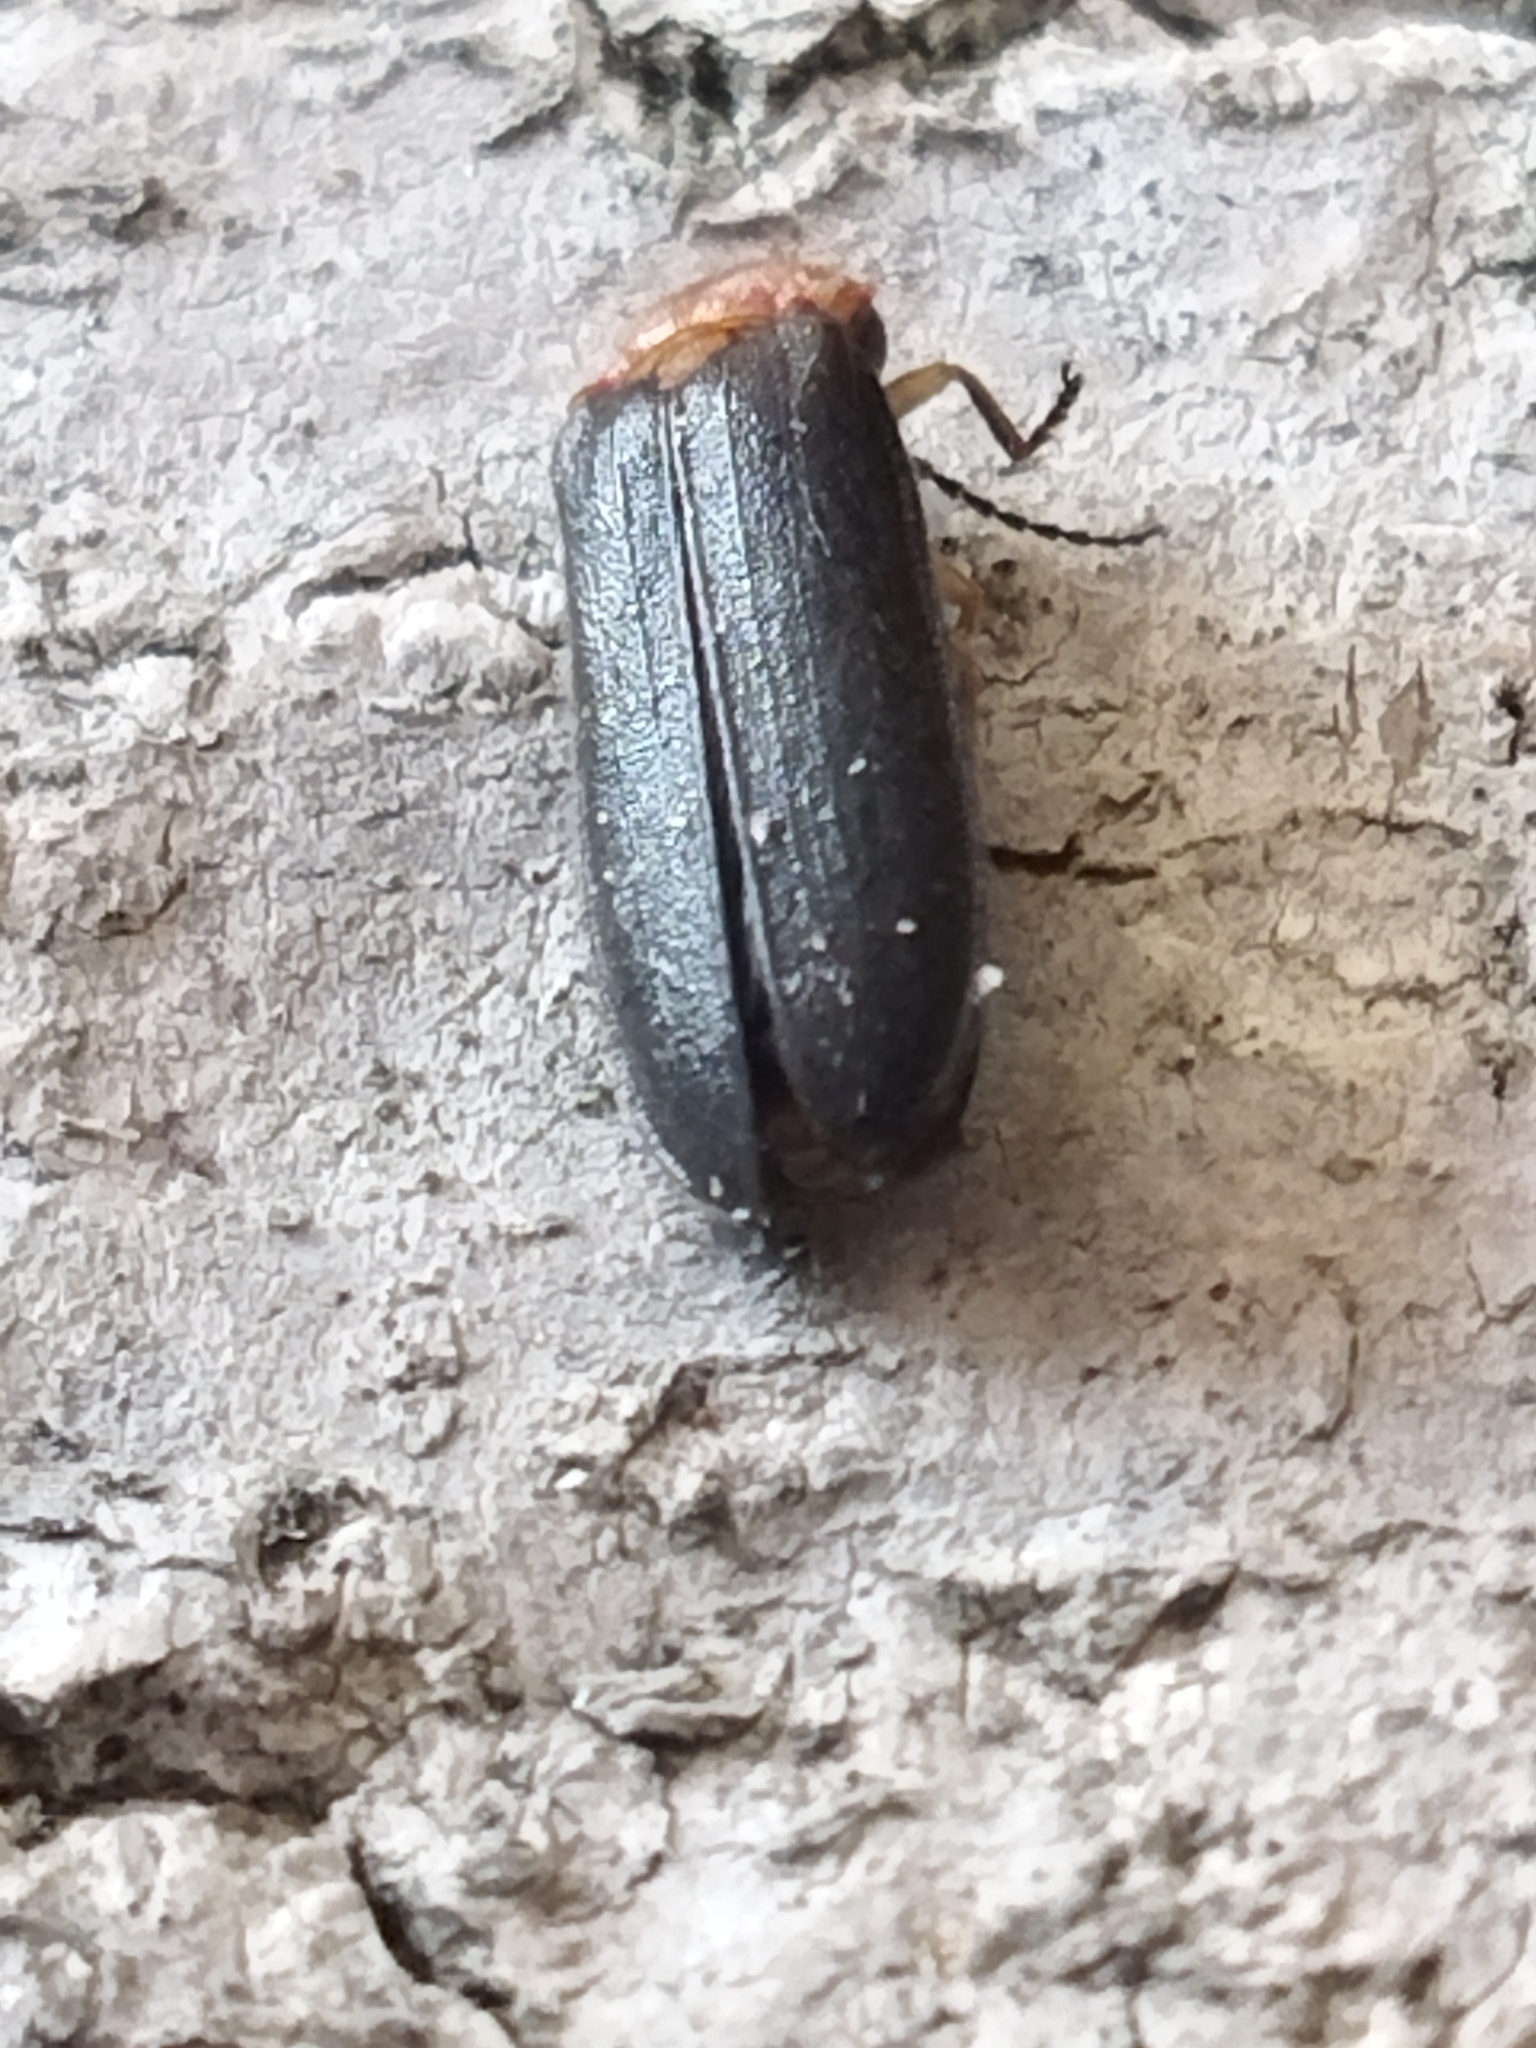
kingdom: Animalia
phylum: Arthropoda
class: Insecta
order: Coleoptera
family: Lampyridae
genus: Luciola
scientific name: Luciola lusitanica
